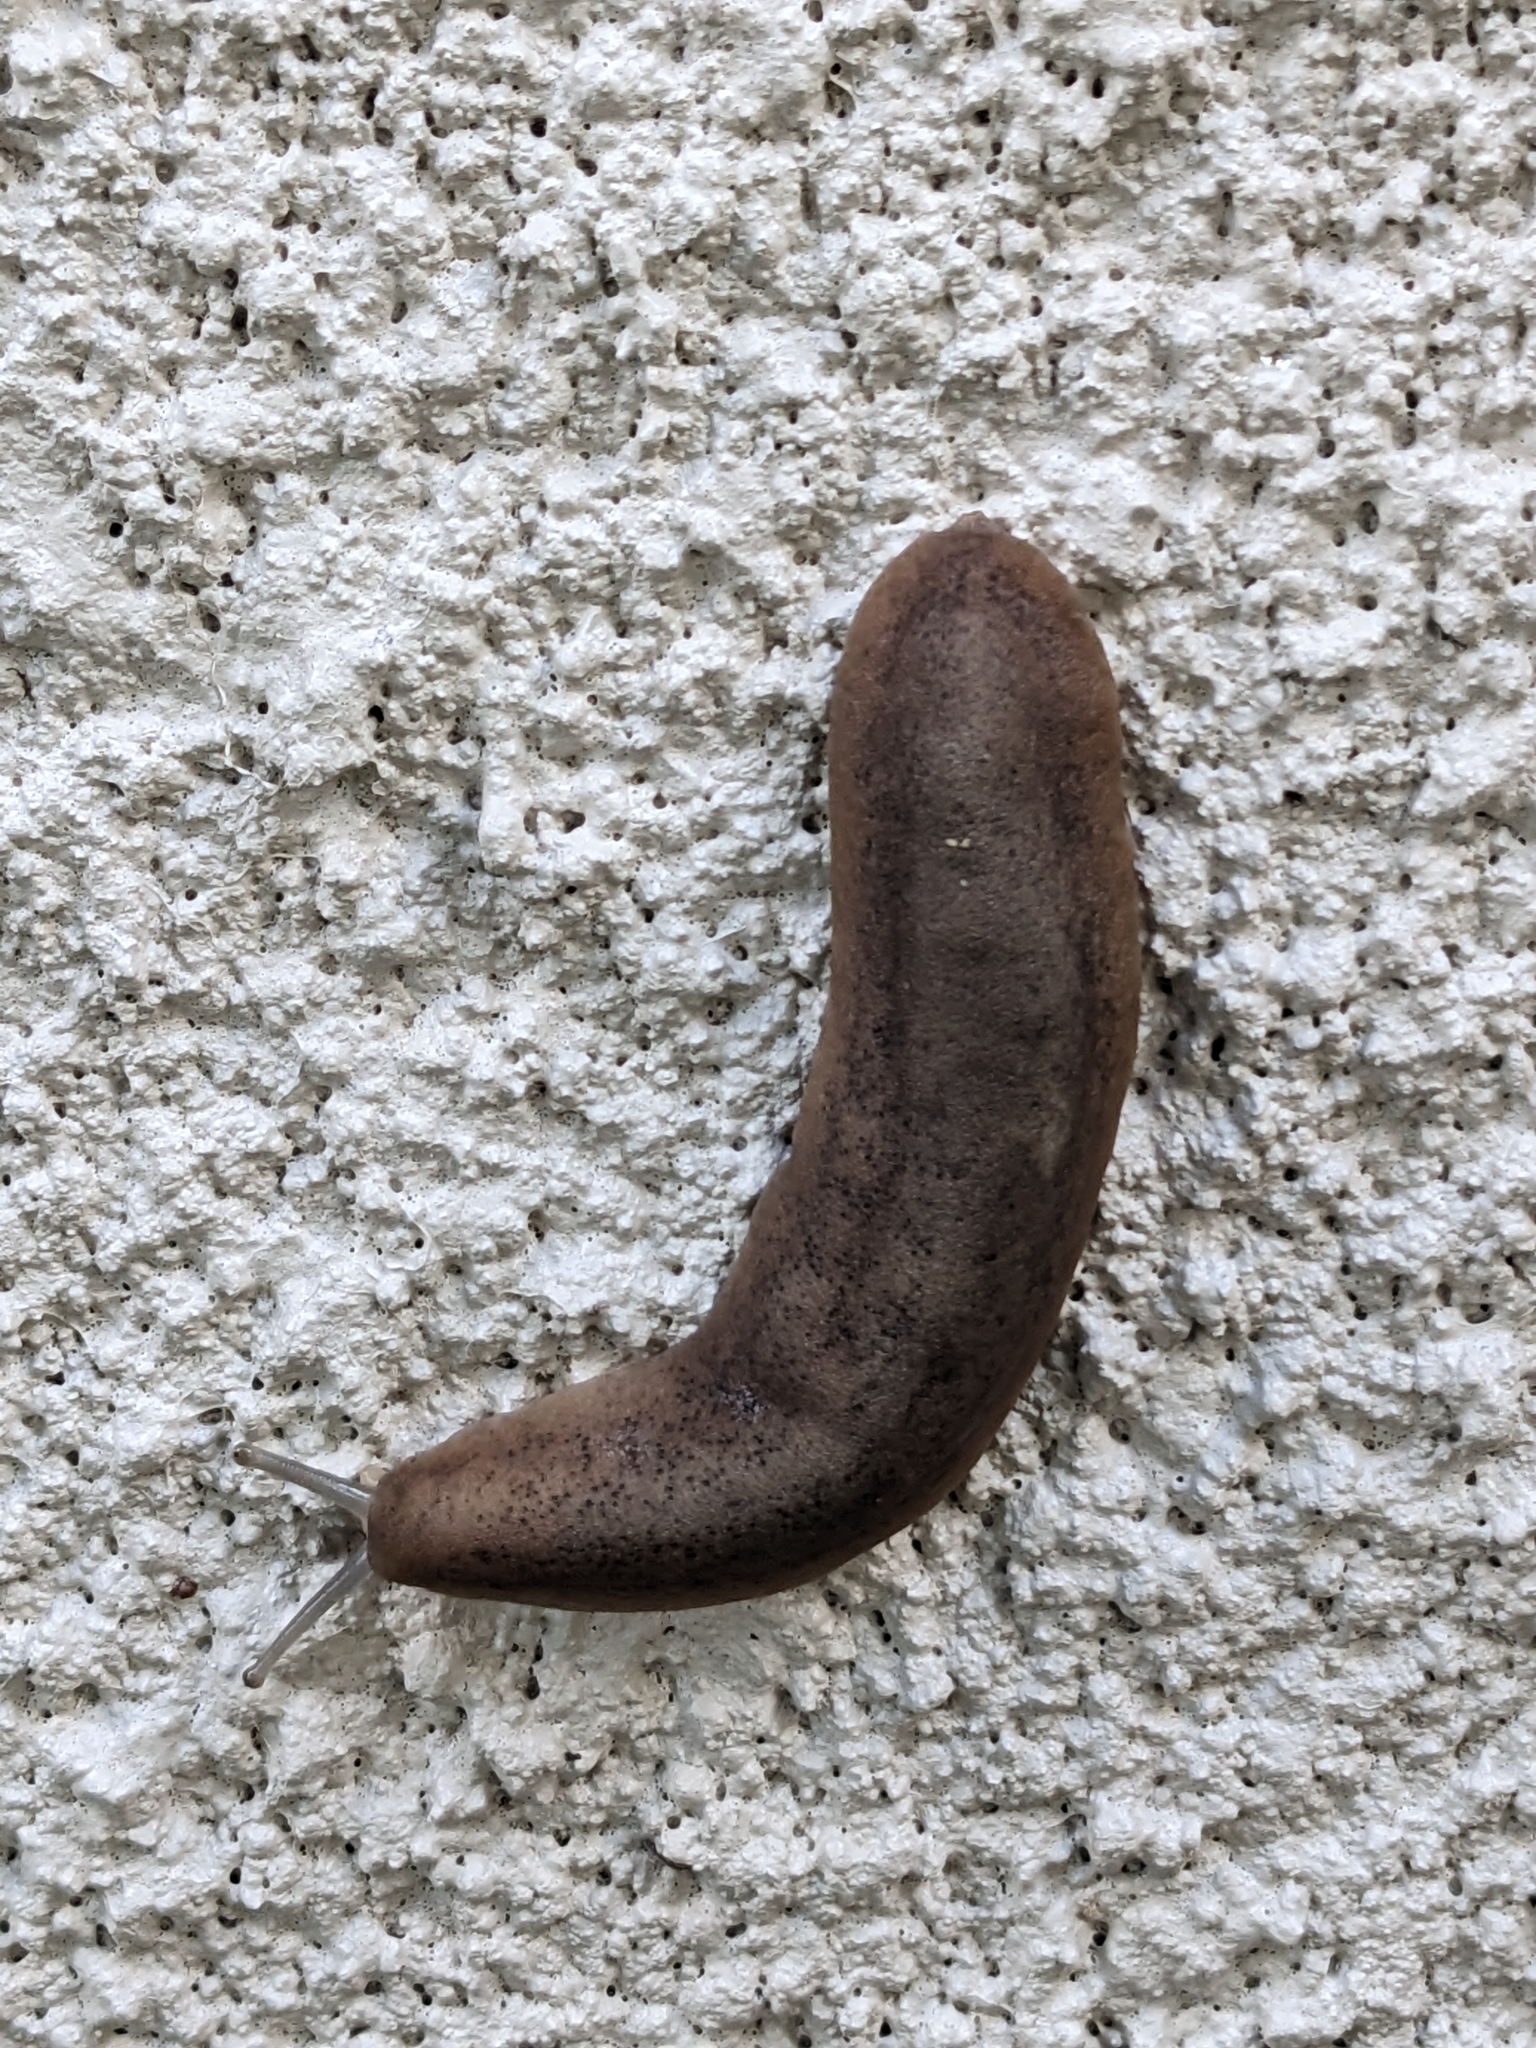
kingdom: Animalia
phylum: Mollusca
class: Gastropoda
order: Systellommatophora
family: Veronicellidae
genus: Sarasinula
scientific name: Sarasinula plebeia
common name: Caribbean leatherleaf
